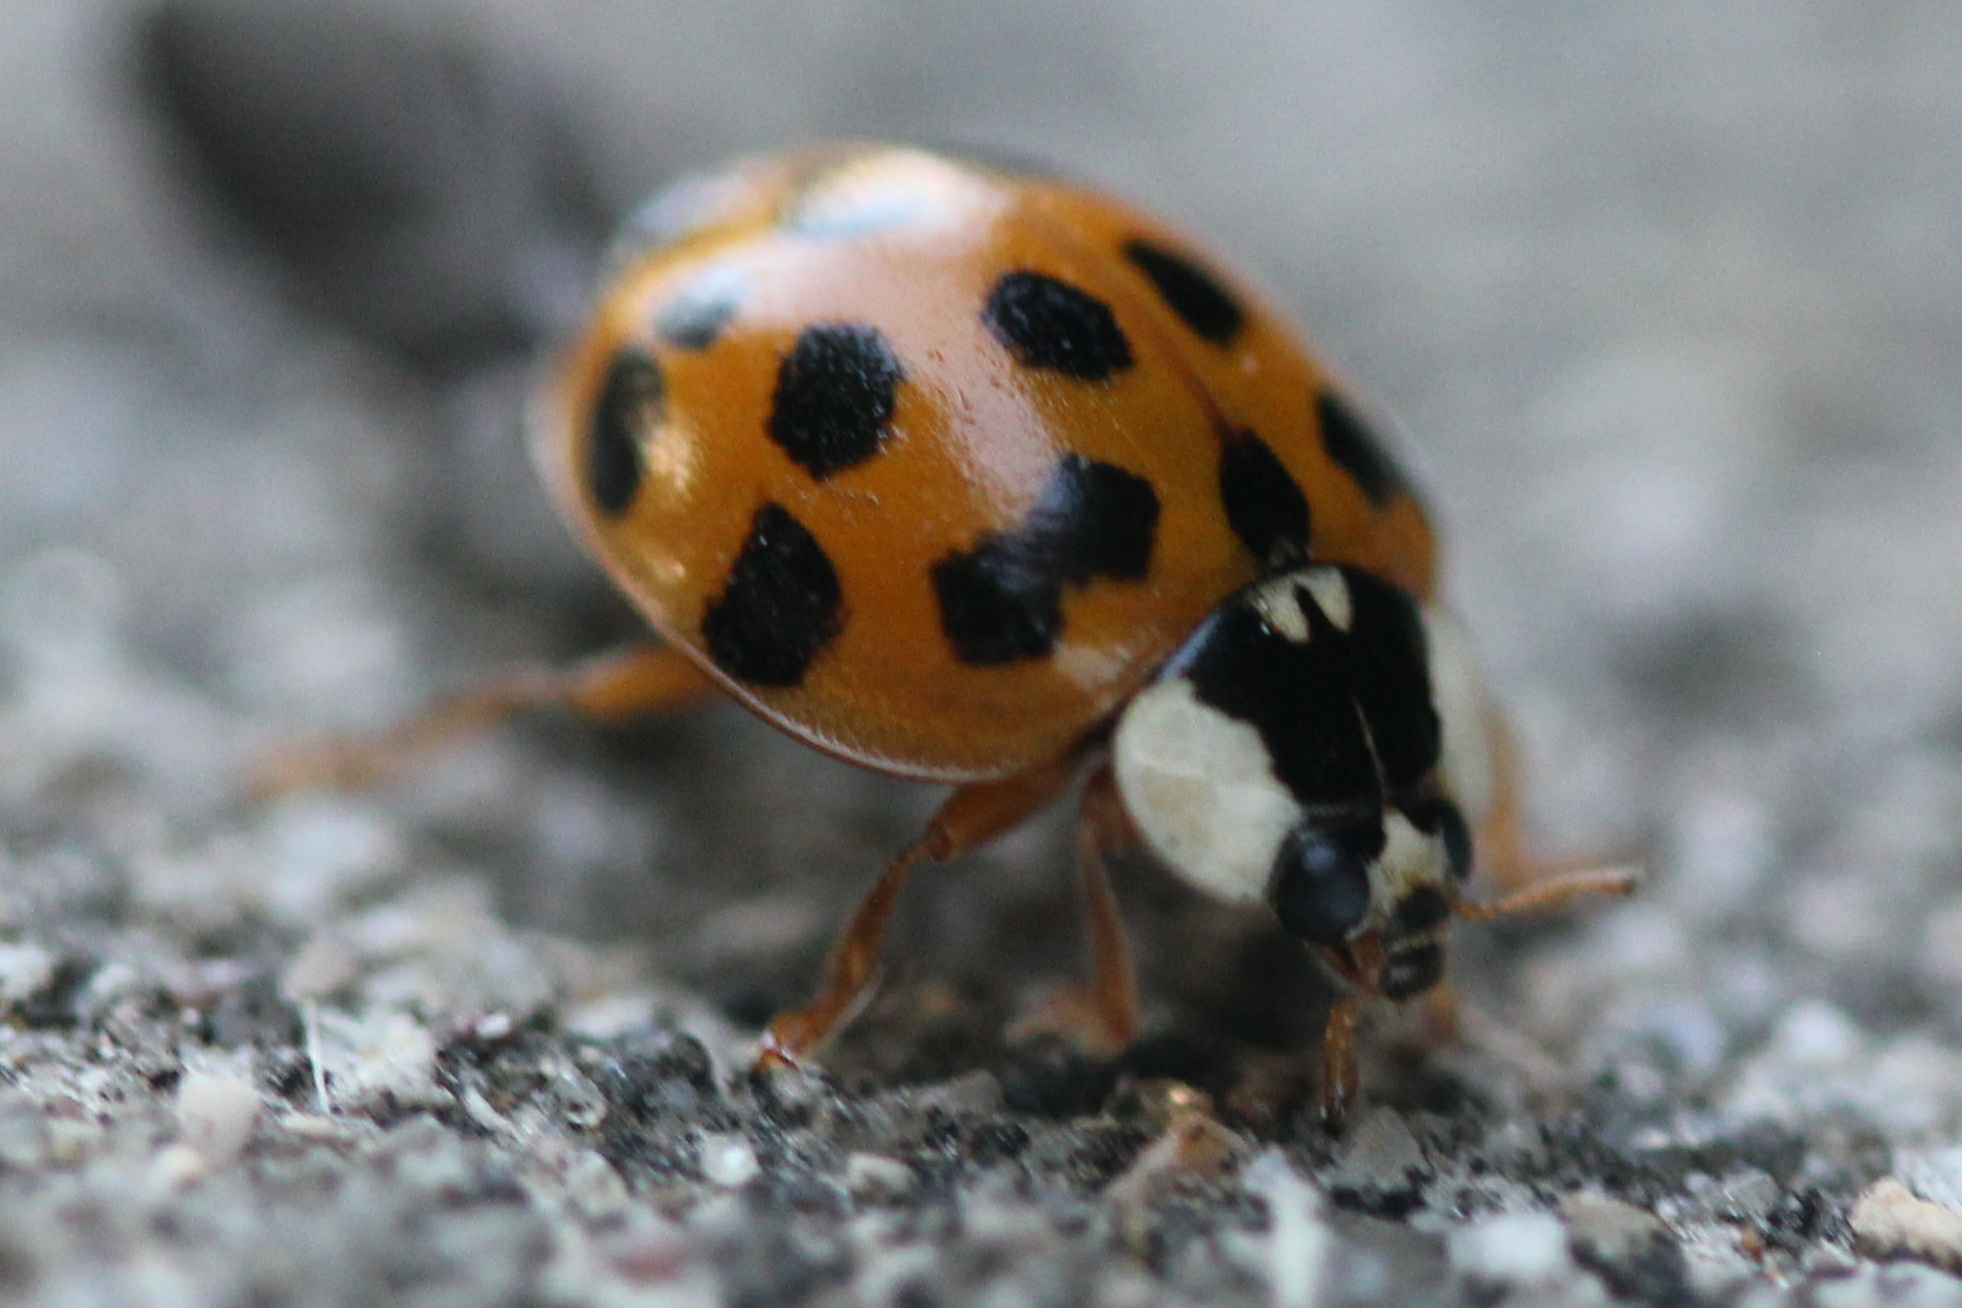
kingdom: Animalia
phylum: Arthropoda
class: Insecta
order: Coleoptera
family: Coccinellidae
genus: Harmonia
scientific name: Harmonia axyridis
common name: Harlequin ladybird
